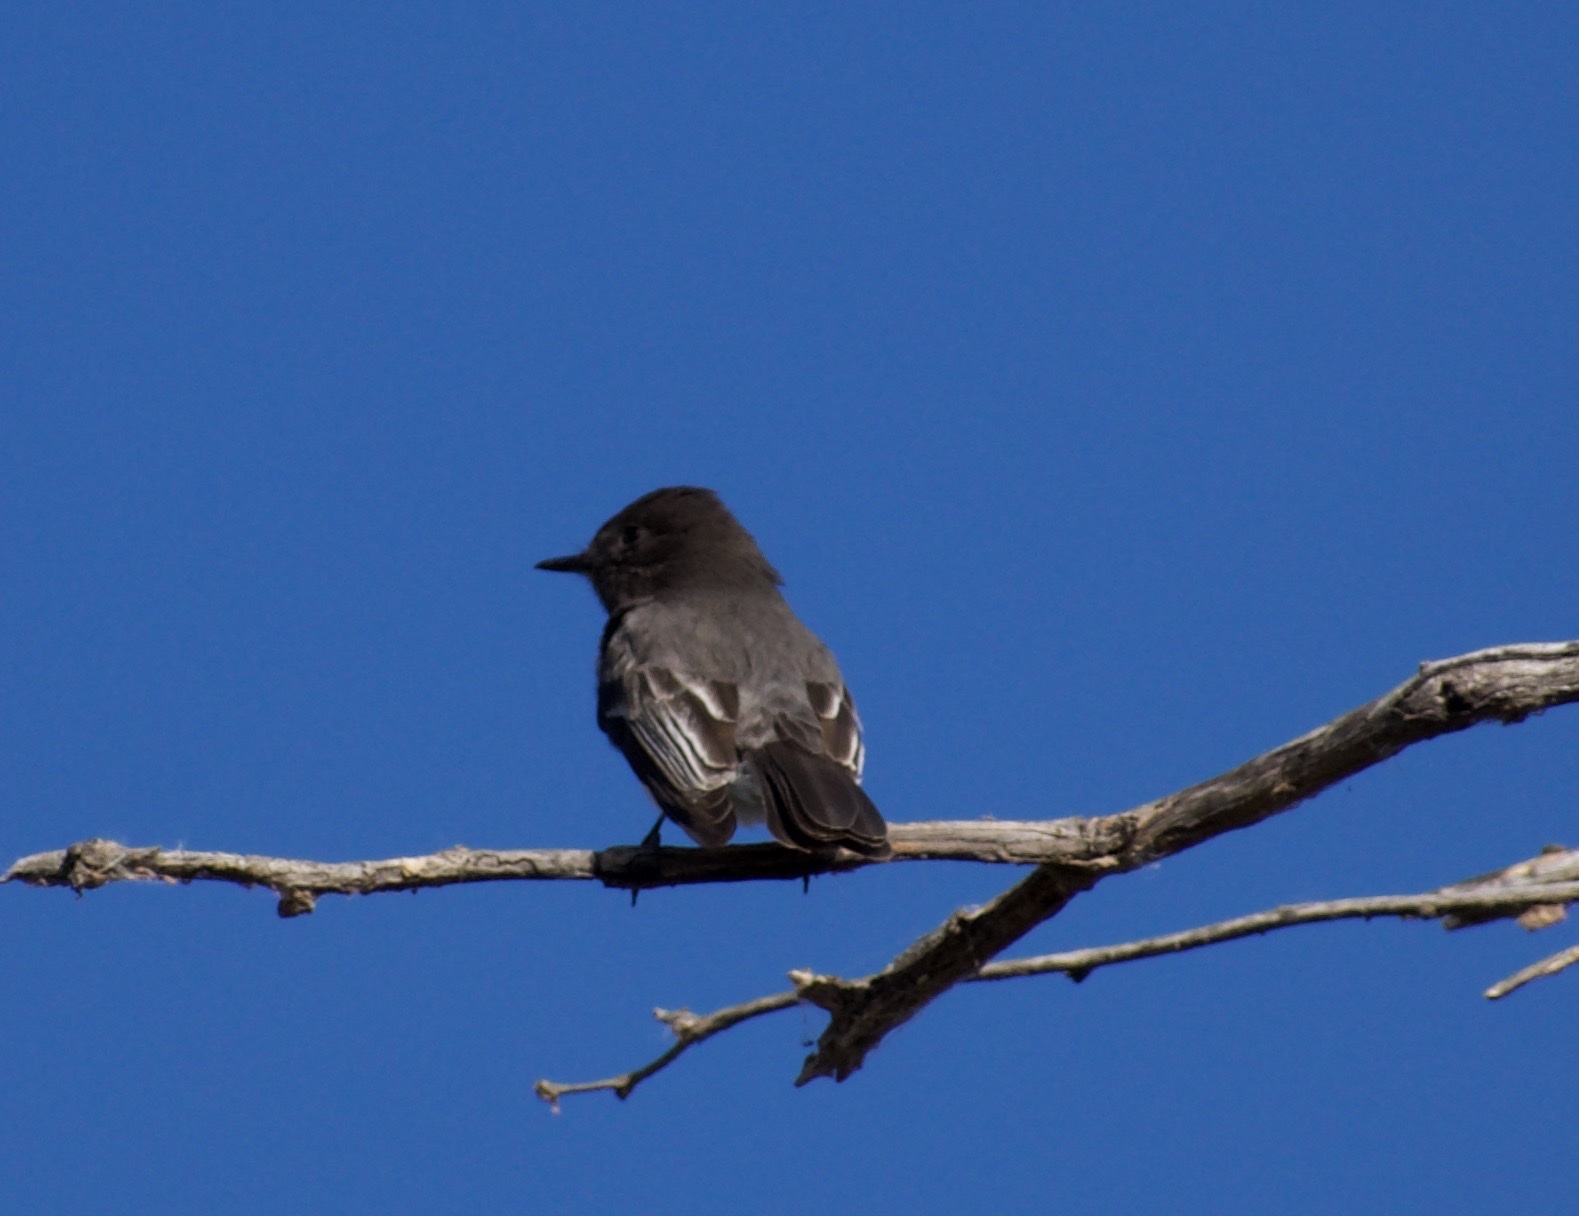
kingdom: Animalia
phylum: Chordata
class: Aves
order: Passeriformes
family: Tyrannidae
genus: Sayornis
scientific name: Sayornis nigricans
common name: Black phoebe
